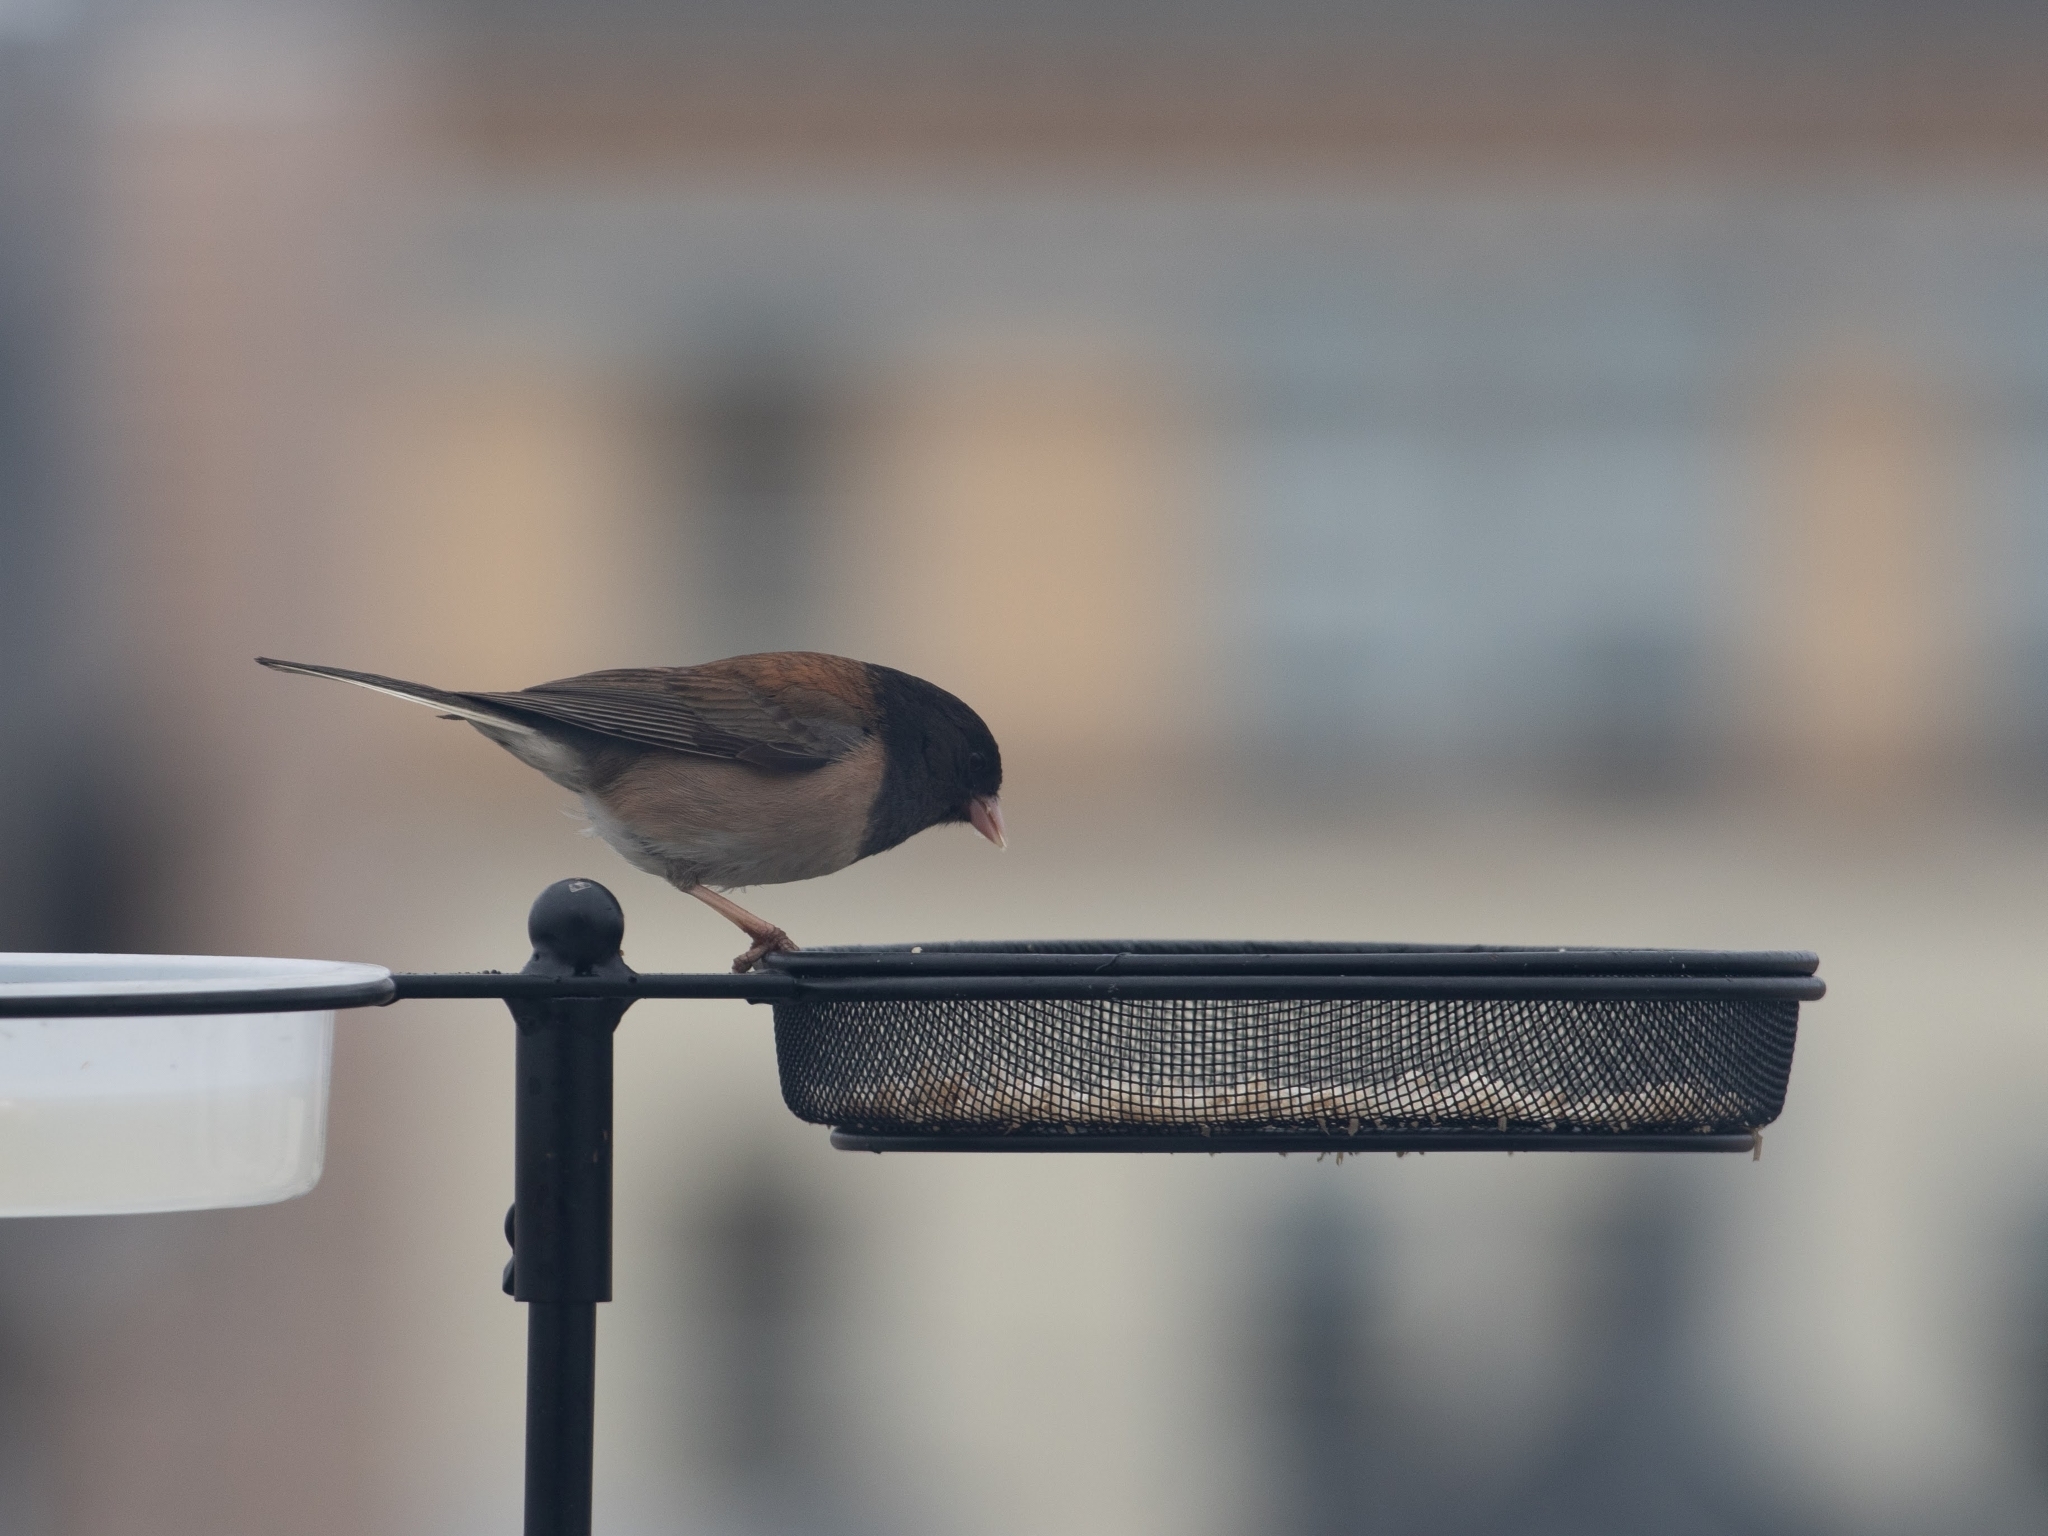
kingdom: Animalia
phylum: Chordata
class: Aves
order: Passeriformes
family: Passerellidae
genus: Junco
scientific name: Junco hyemalis
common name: Dark-eyed junco
